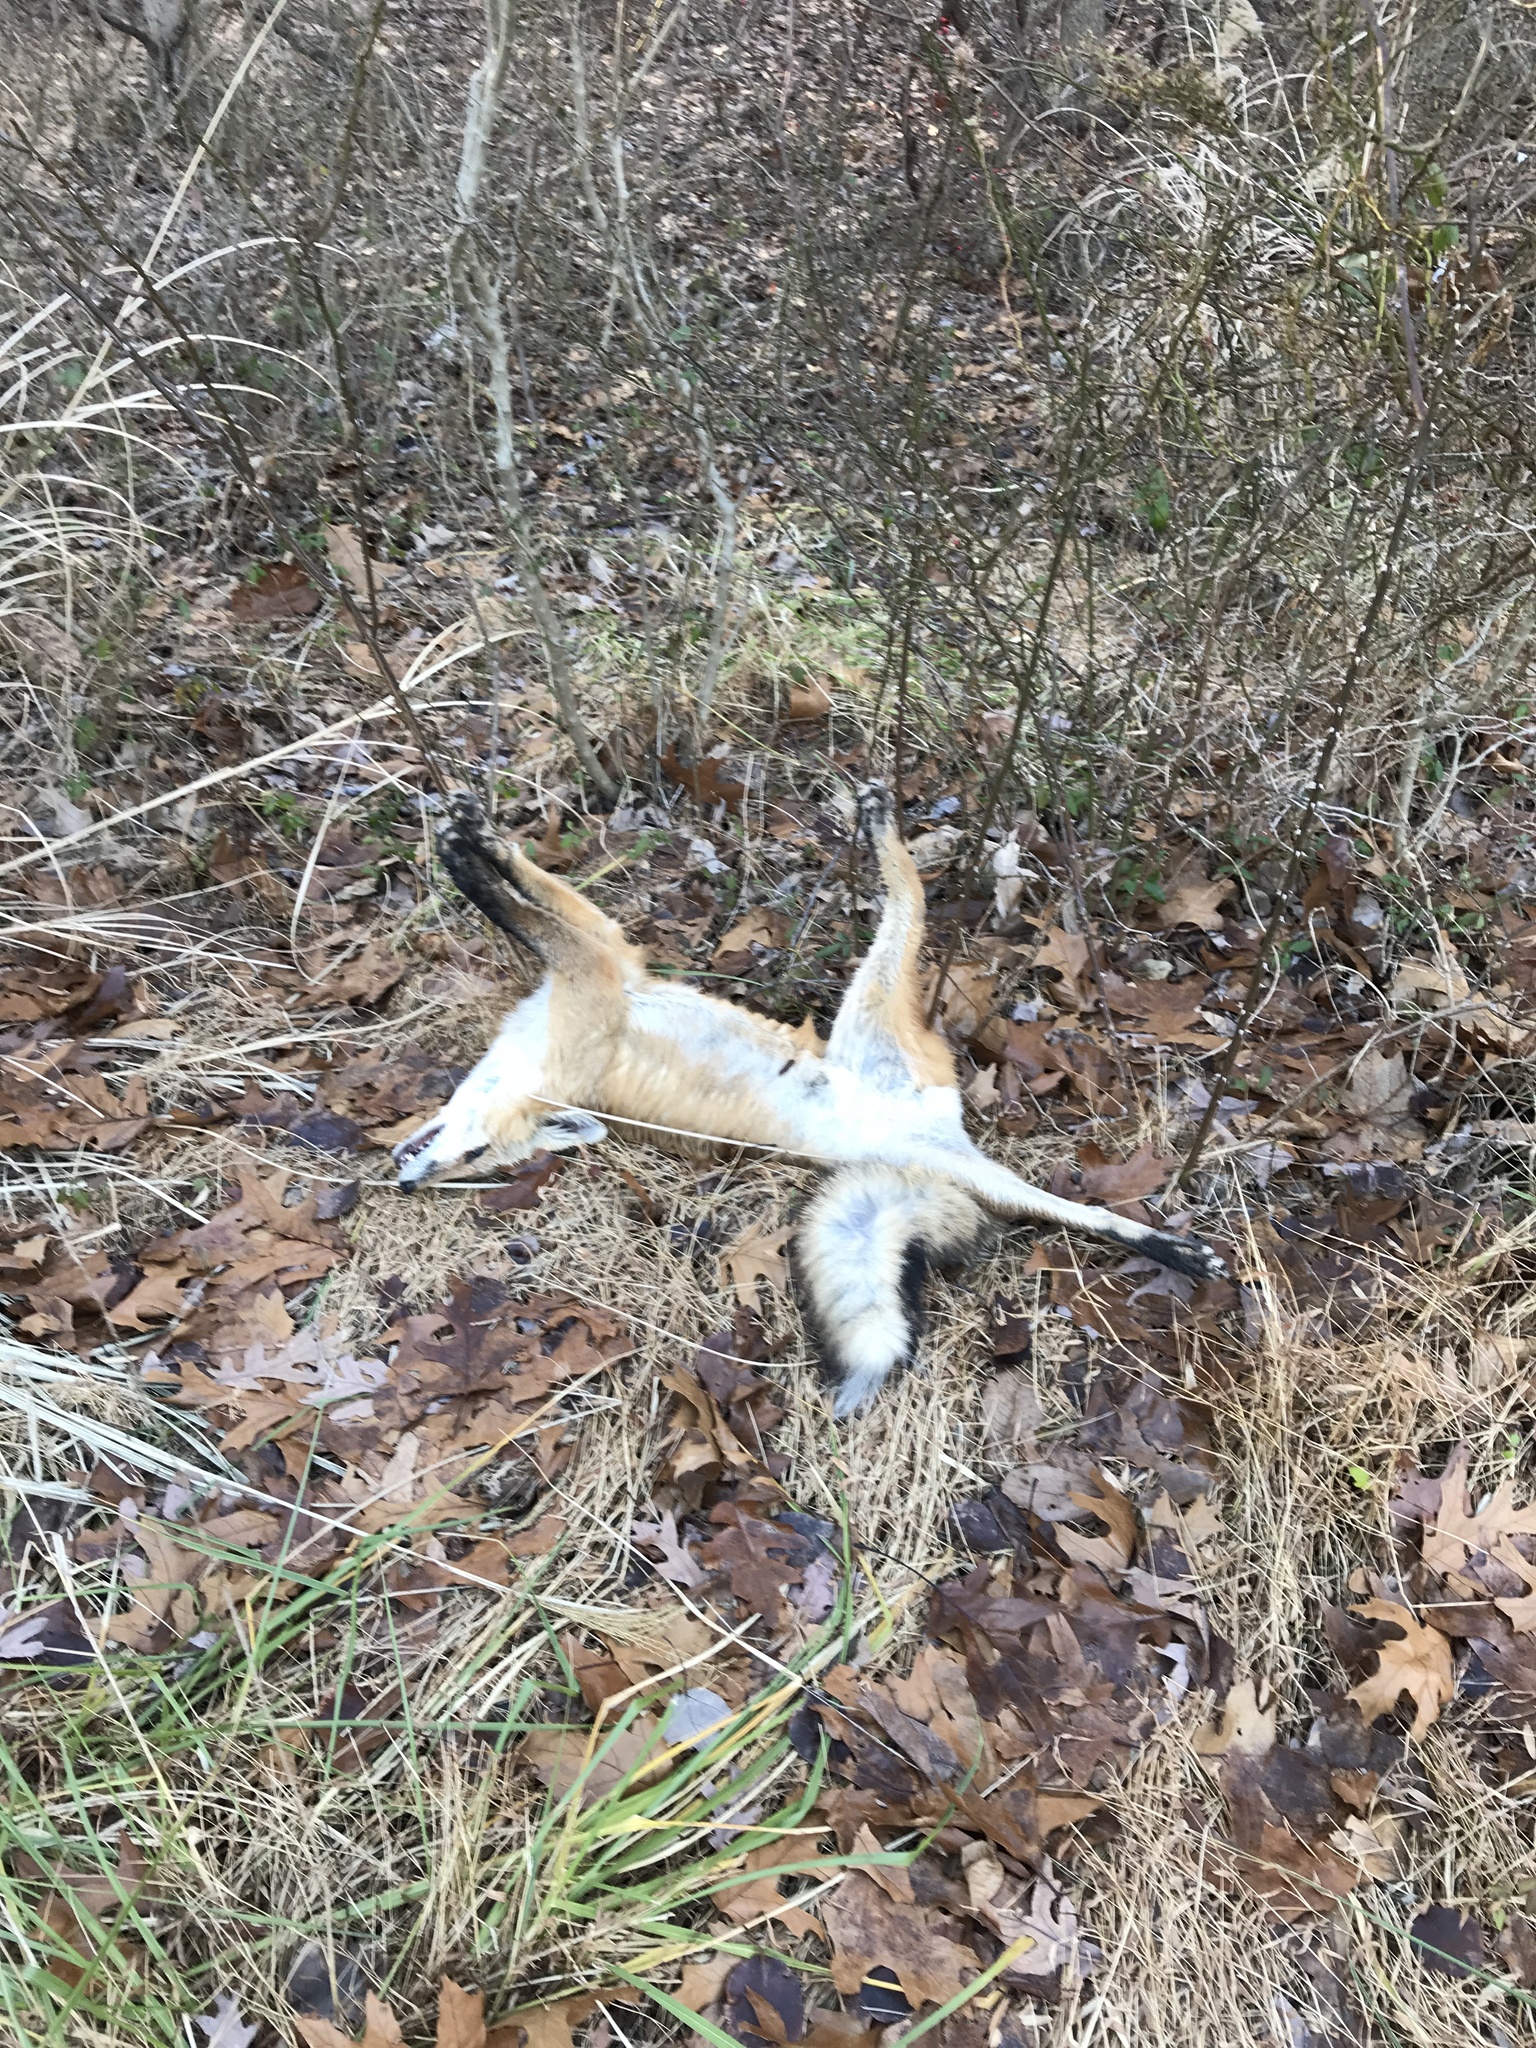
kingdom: Animalia
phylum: Chordata
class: Mammalia
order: Carnivora
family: Canidae
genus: Vulpes
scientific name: Vulpes vulpes
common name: Red fox
